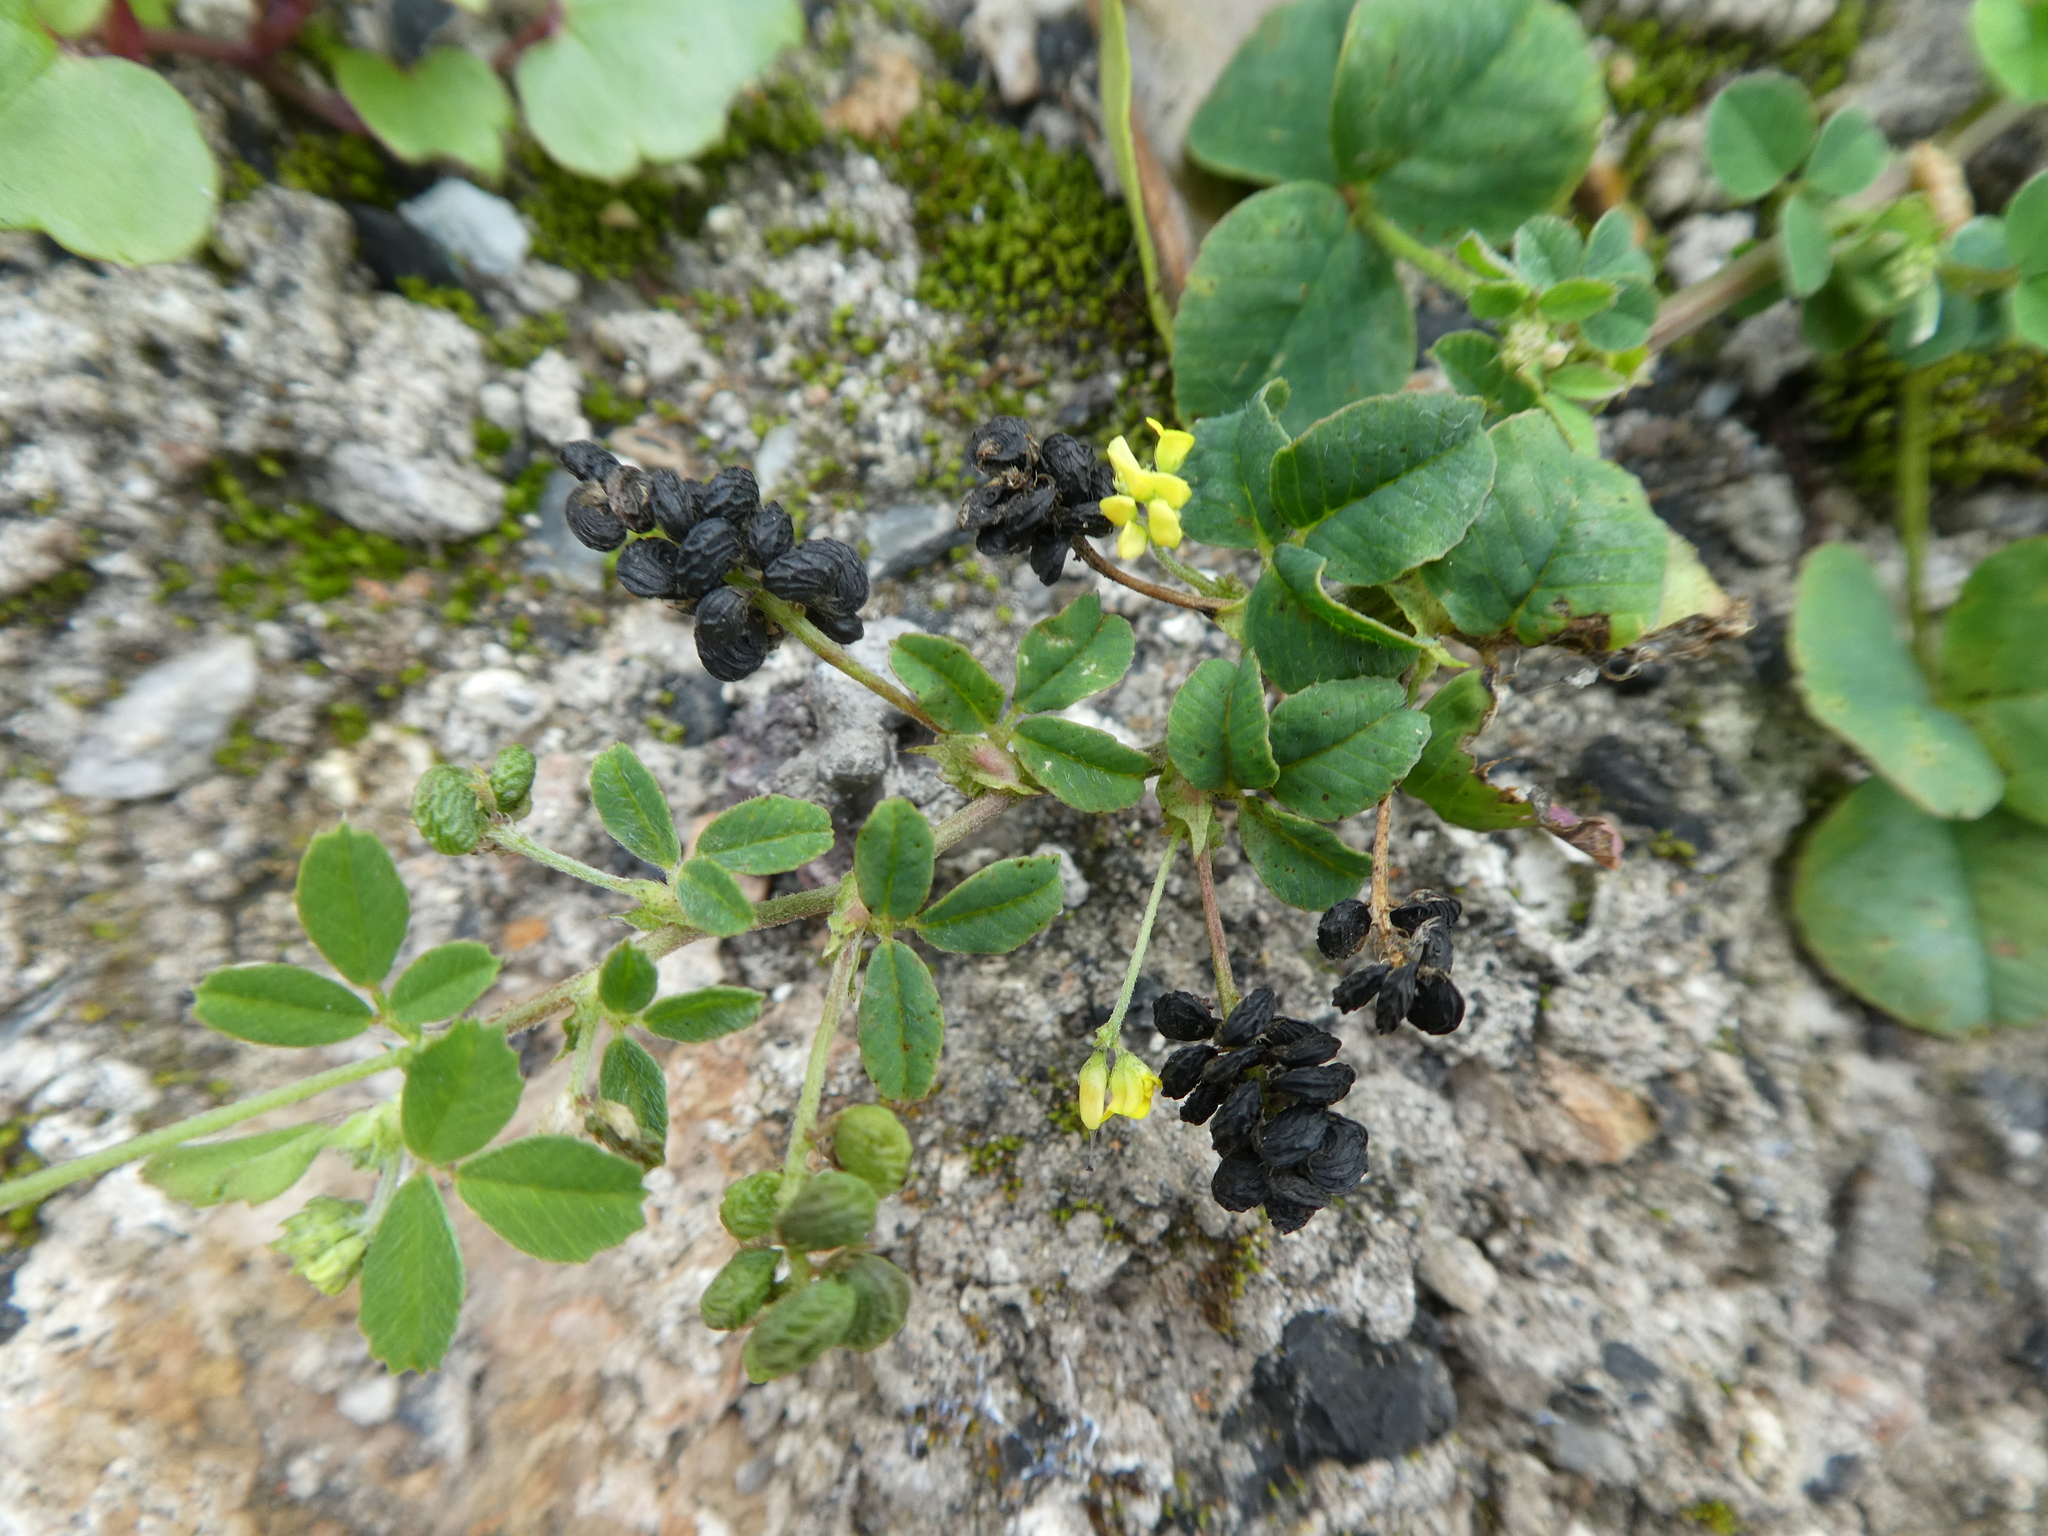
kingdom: Plantae
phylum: Tracheophyta
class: Magnoliopsida
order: Fabales
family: Fabaceae
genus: Medicago
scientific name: Medicago lupulina
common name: Black medick
